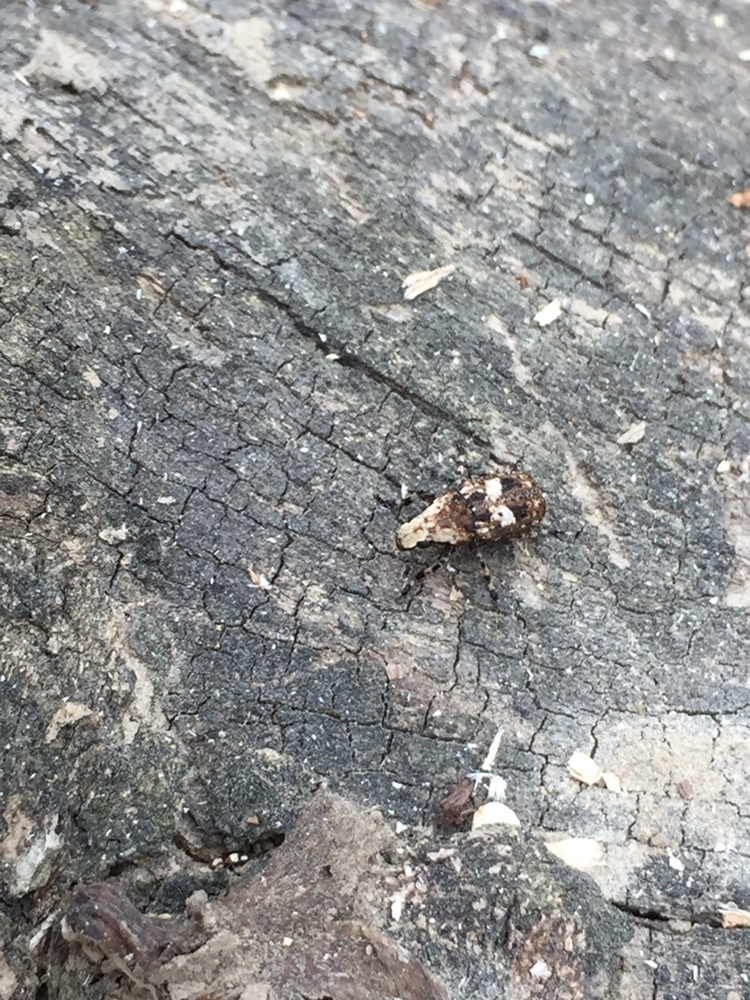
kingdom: Animalia
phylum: Arthropoda
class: Insecta
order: Coleoptera
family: Anthribidae
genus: Euparius
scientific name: Euparius marmoreus
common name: Marbled fungus weevil
